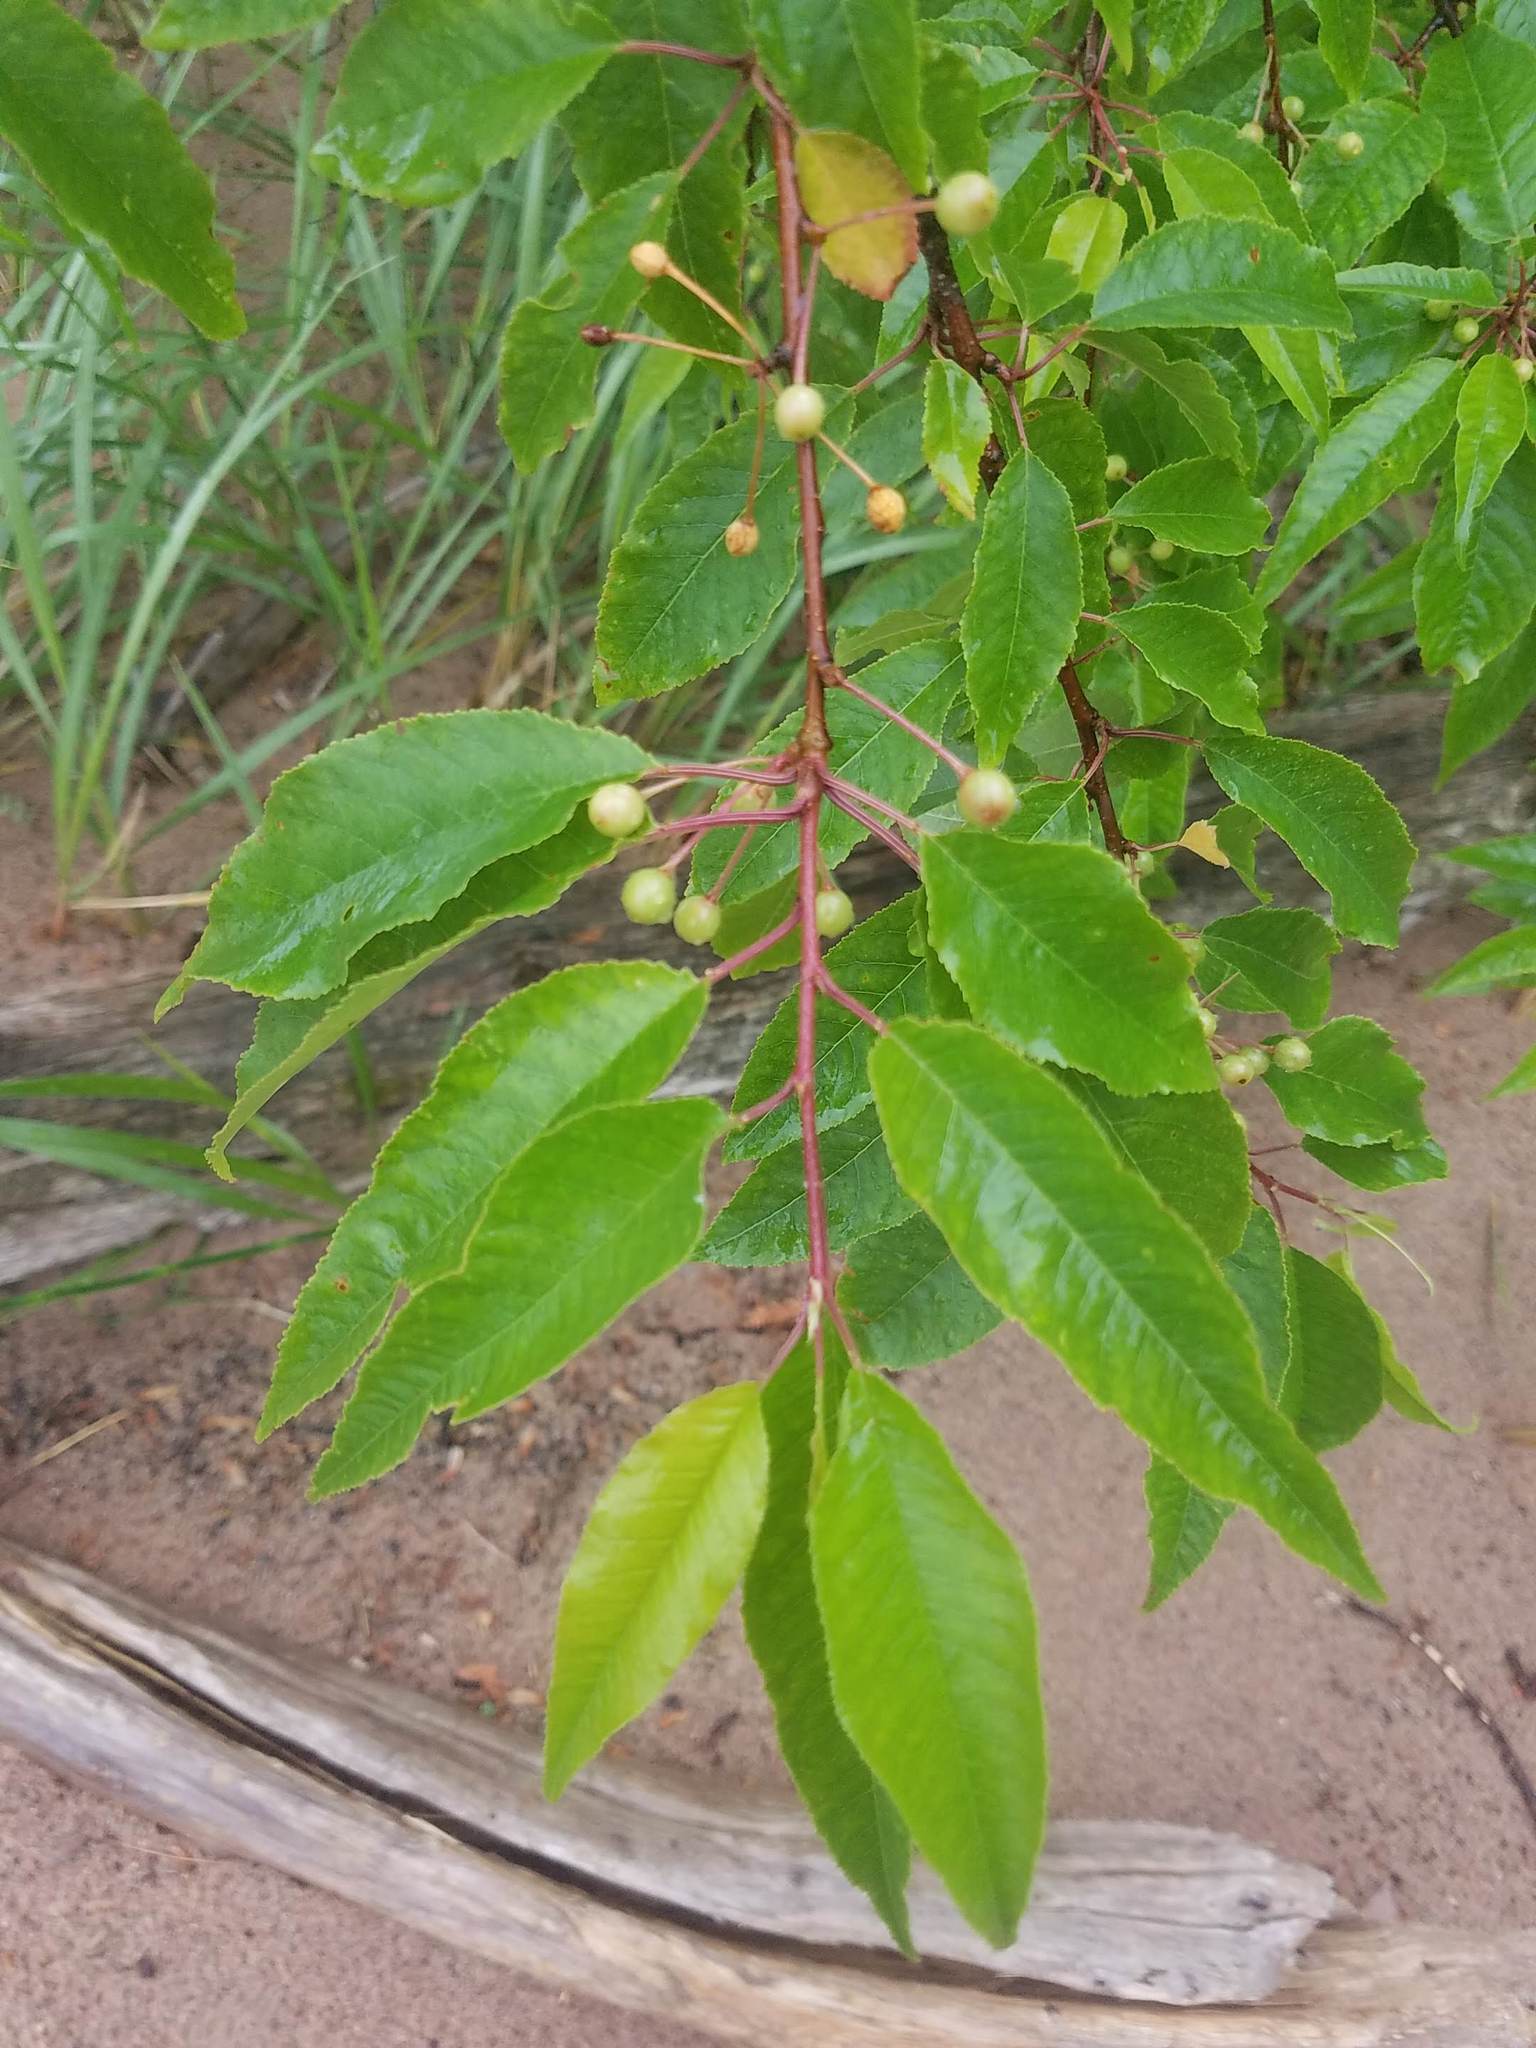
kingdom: Plantae
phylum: Tracheophyta
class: Magnoliopsida
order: Rosales
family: Rosaceae
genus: Prunus
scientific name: Prunus pensylvanica
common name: Pin cherry
